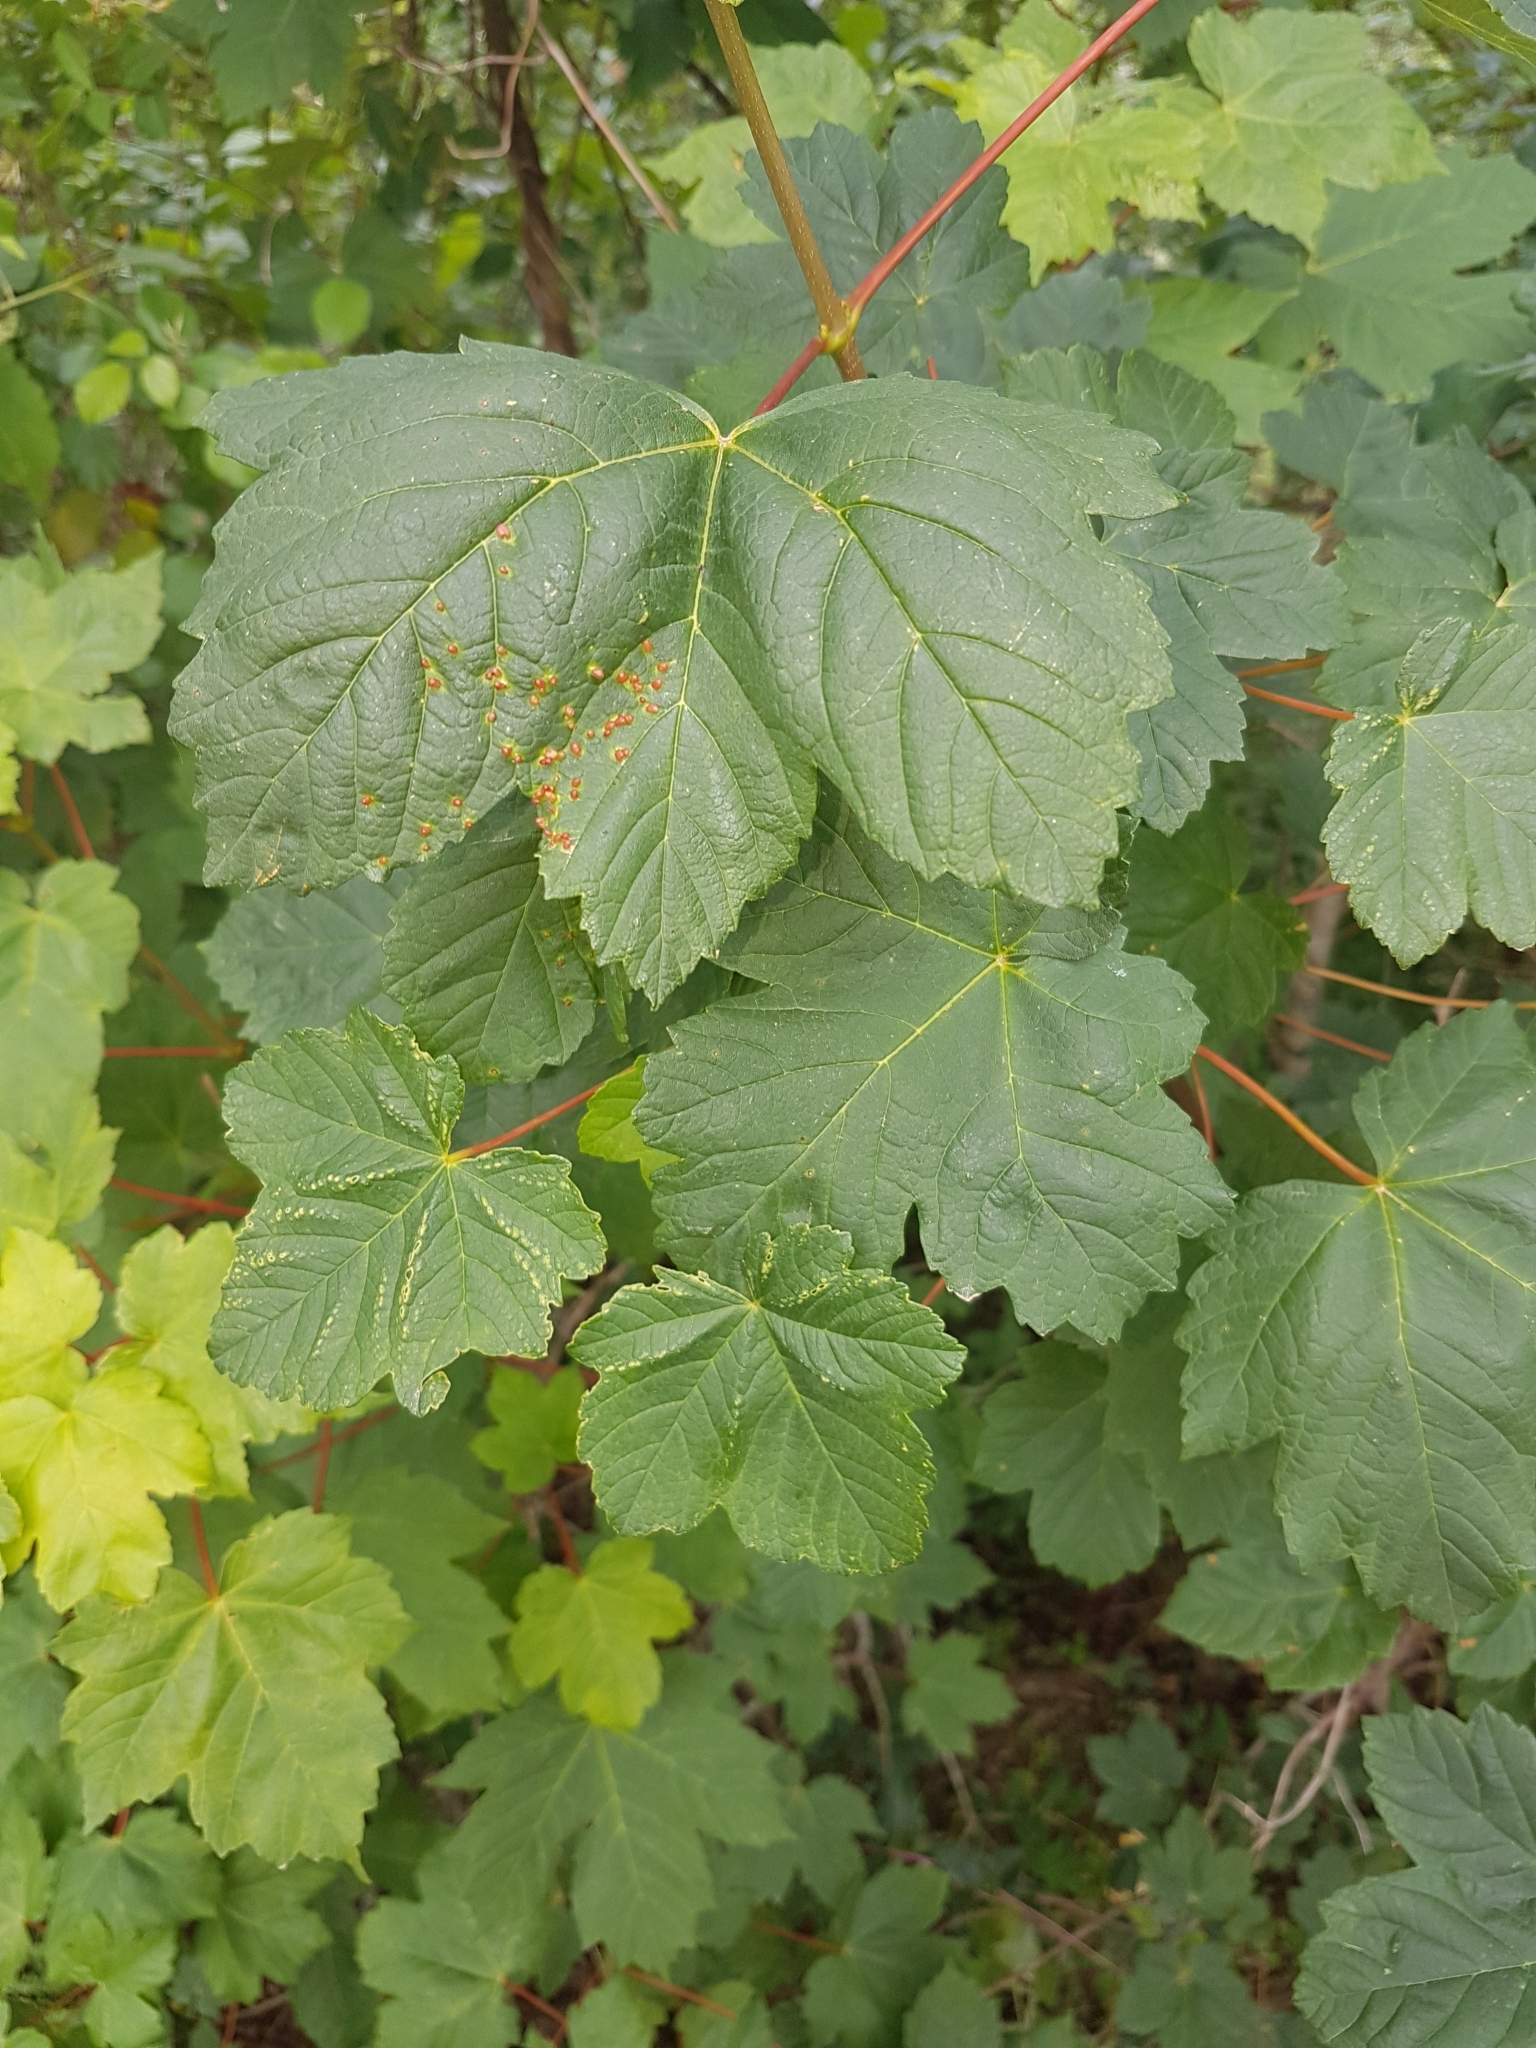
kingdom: Plantae
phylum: Tracheophyta
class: Magnoliopsida
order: Sapindales
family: Sapindaceae
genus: Acer
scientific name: Acer pseudoplatanus
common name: Sycamore
